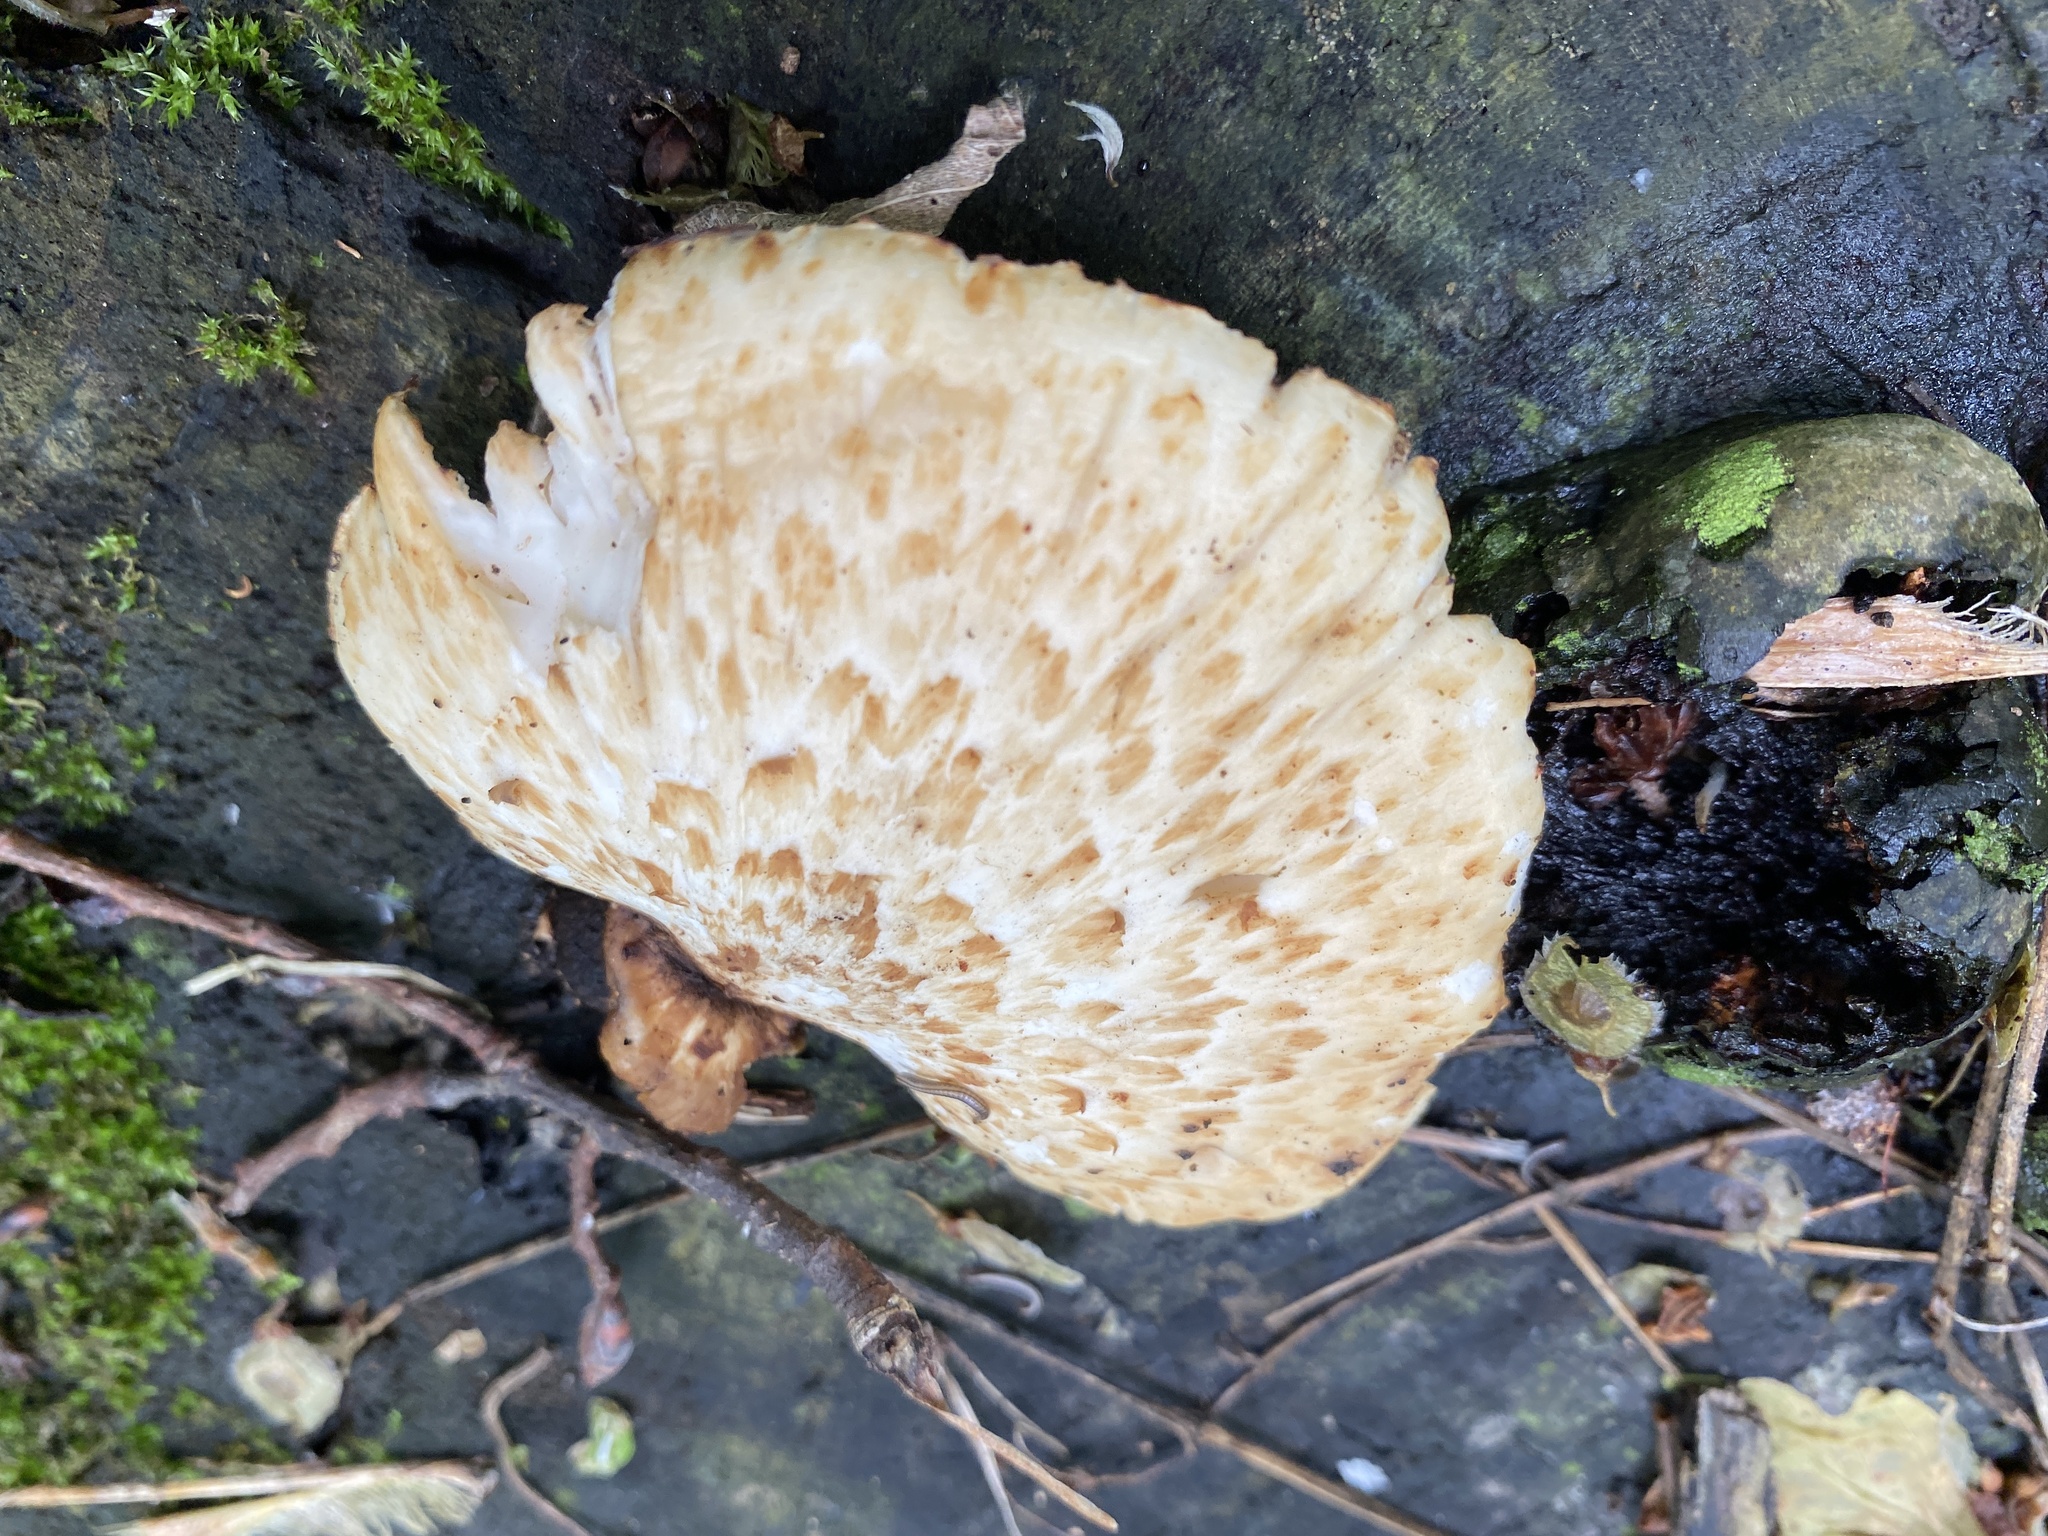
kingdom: Fungi
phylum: Basidiomycota
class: Agaricomycetes
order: Polyporales
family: Polyporaceae
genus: Cerioporus
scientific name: Cerioporus squamosus
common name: Dryad's saddle
